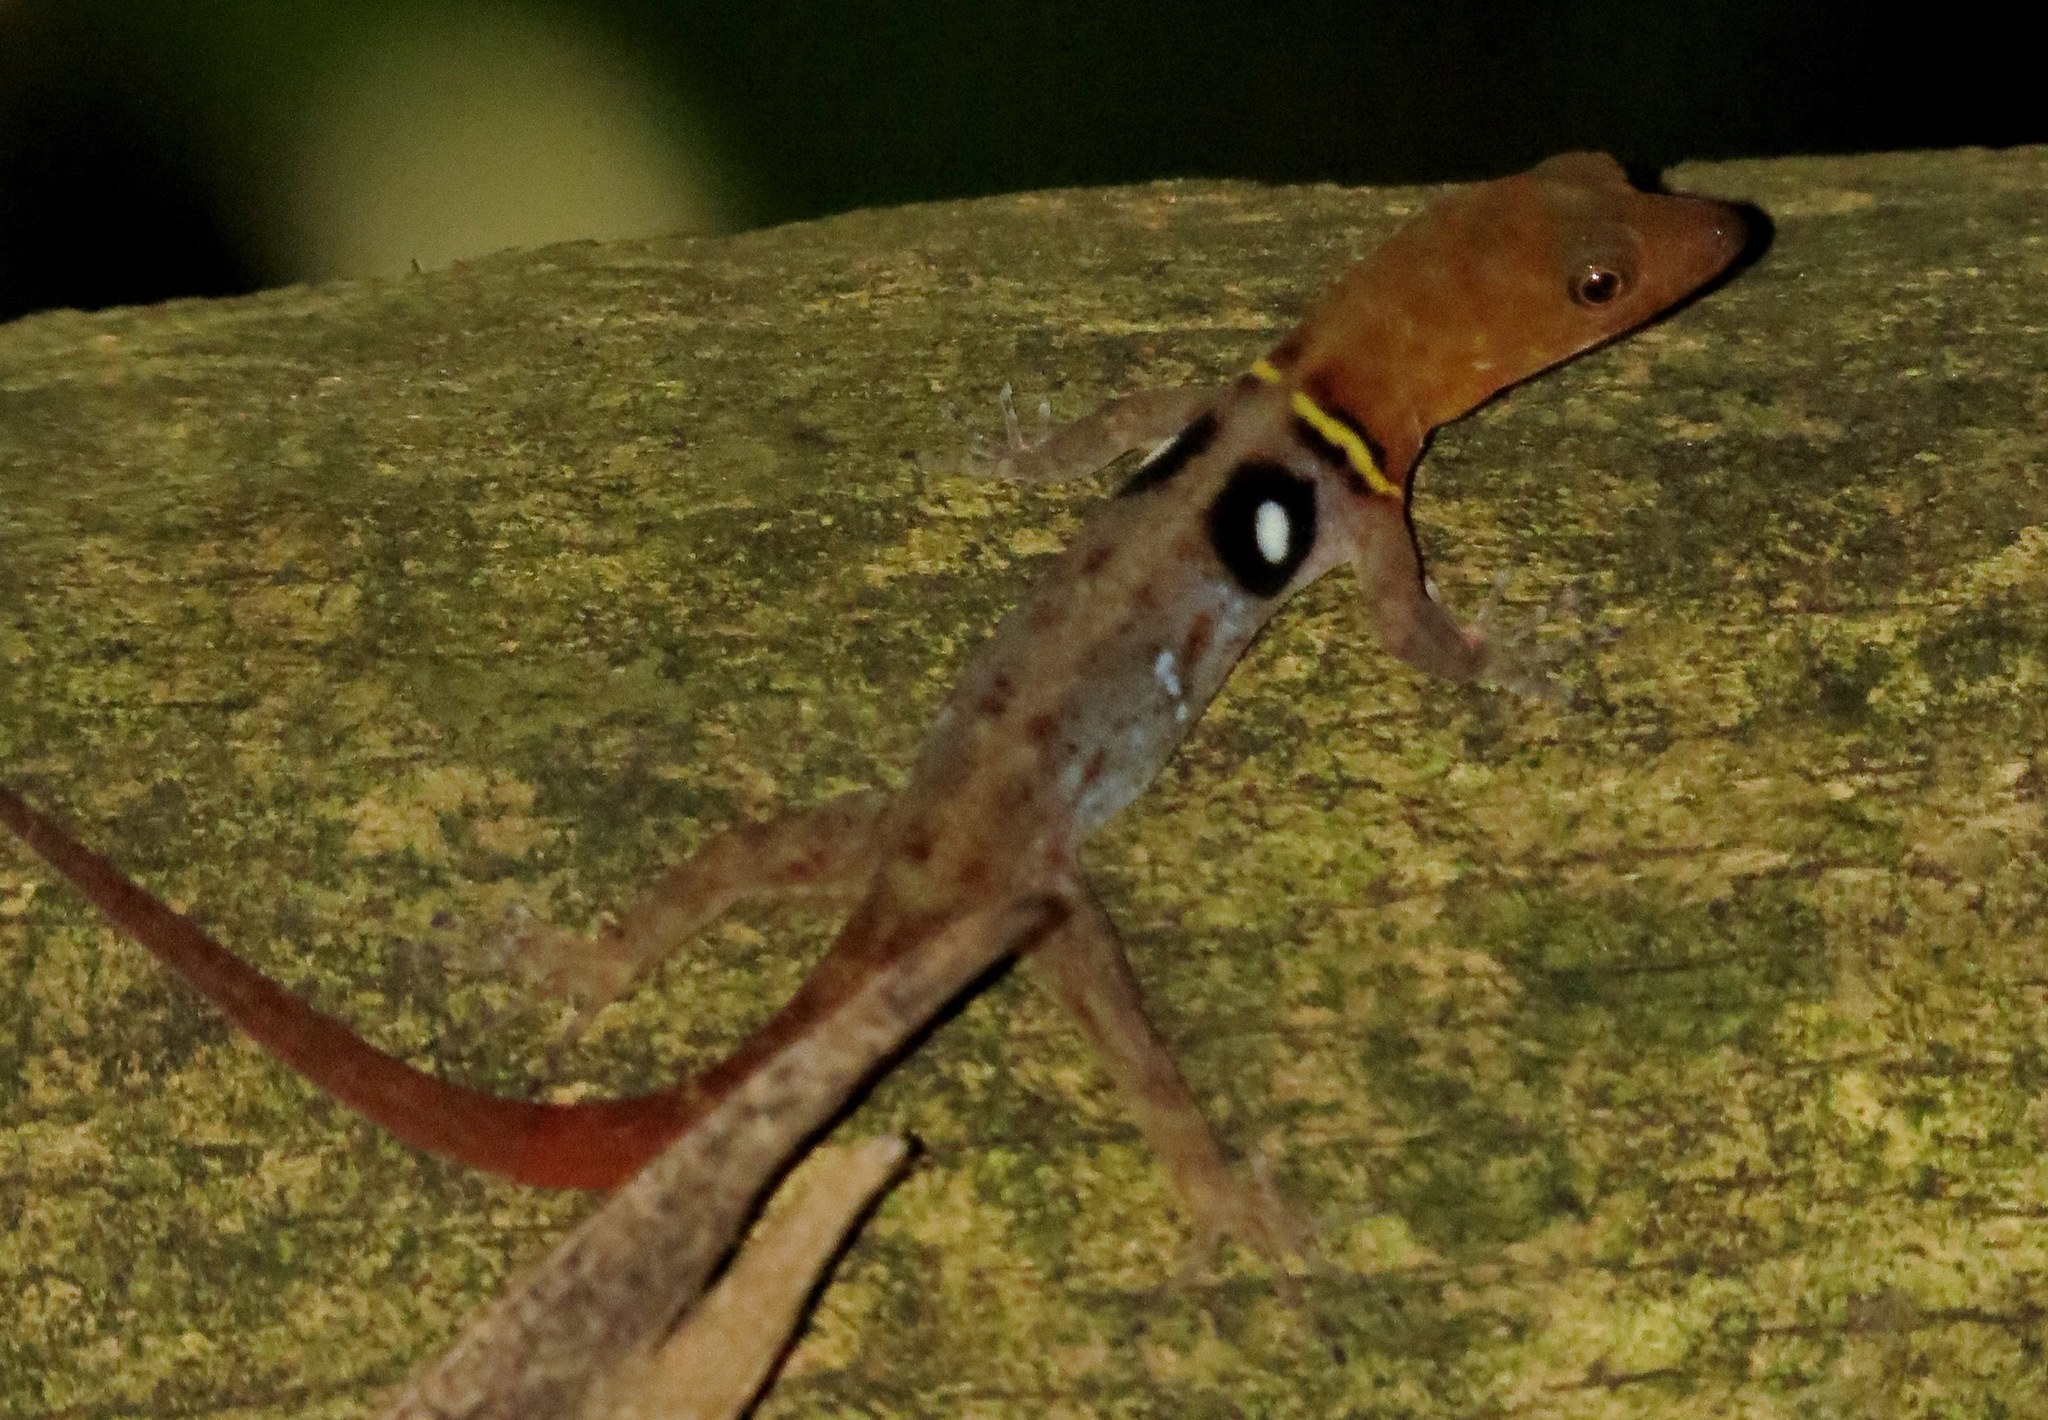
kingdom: Animalia
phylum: Chordata
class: Squamata
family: Sphaerodactylidae
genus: Gonatodes
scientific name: Gonatodes ocellatus
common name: Eyespot gecko
